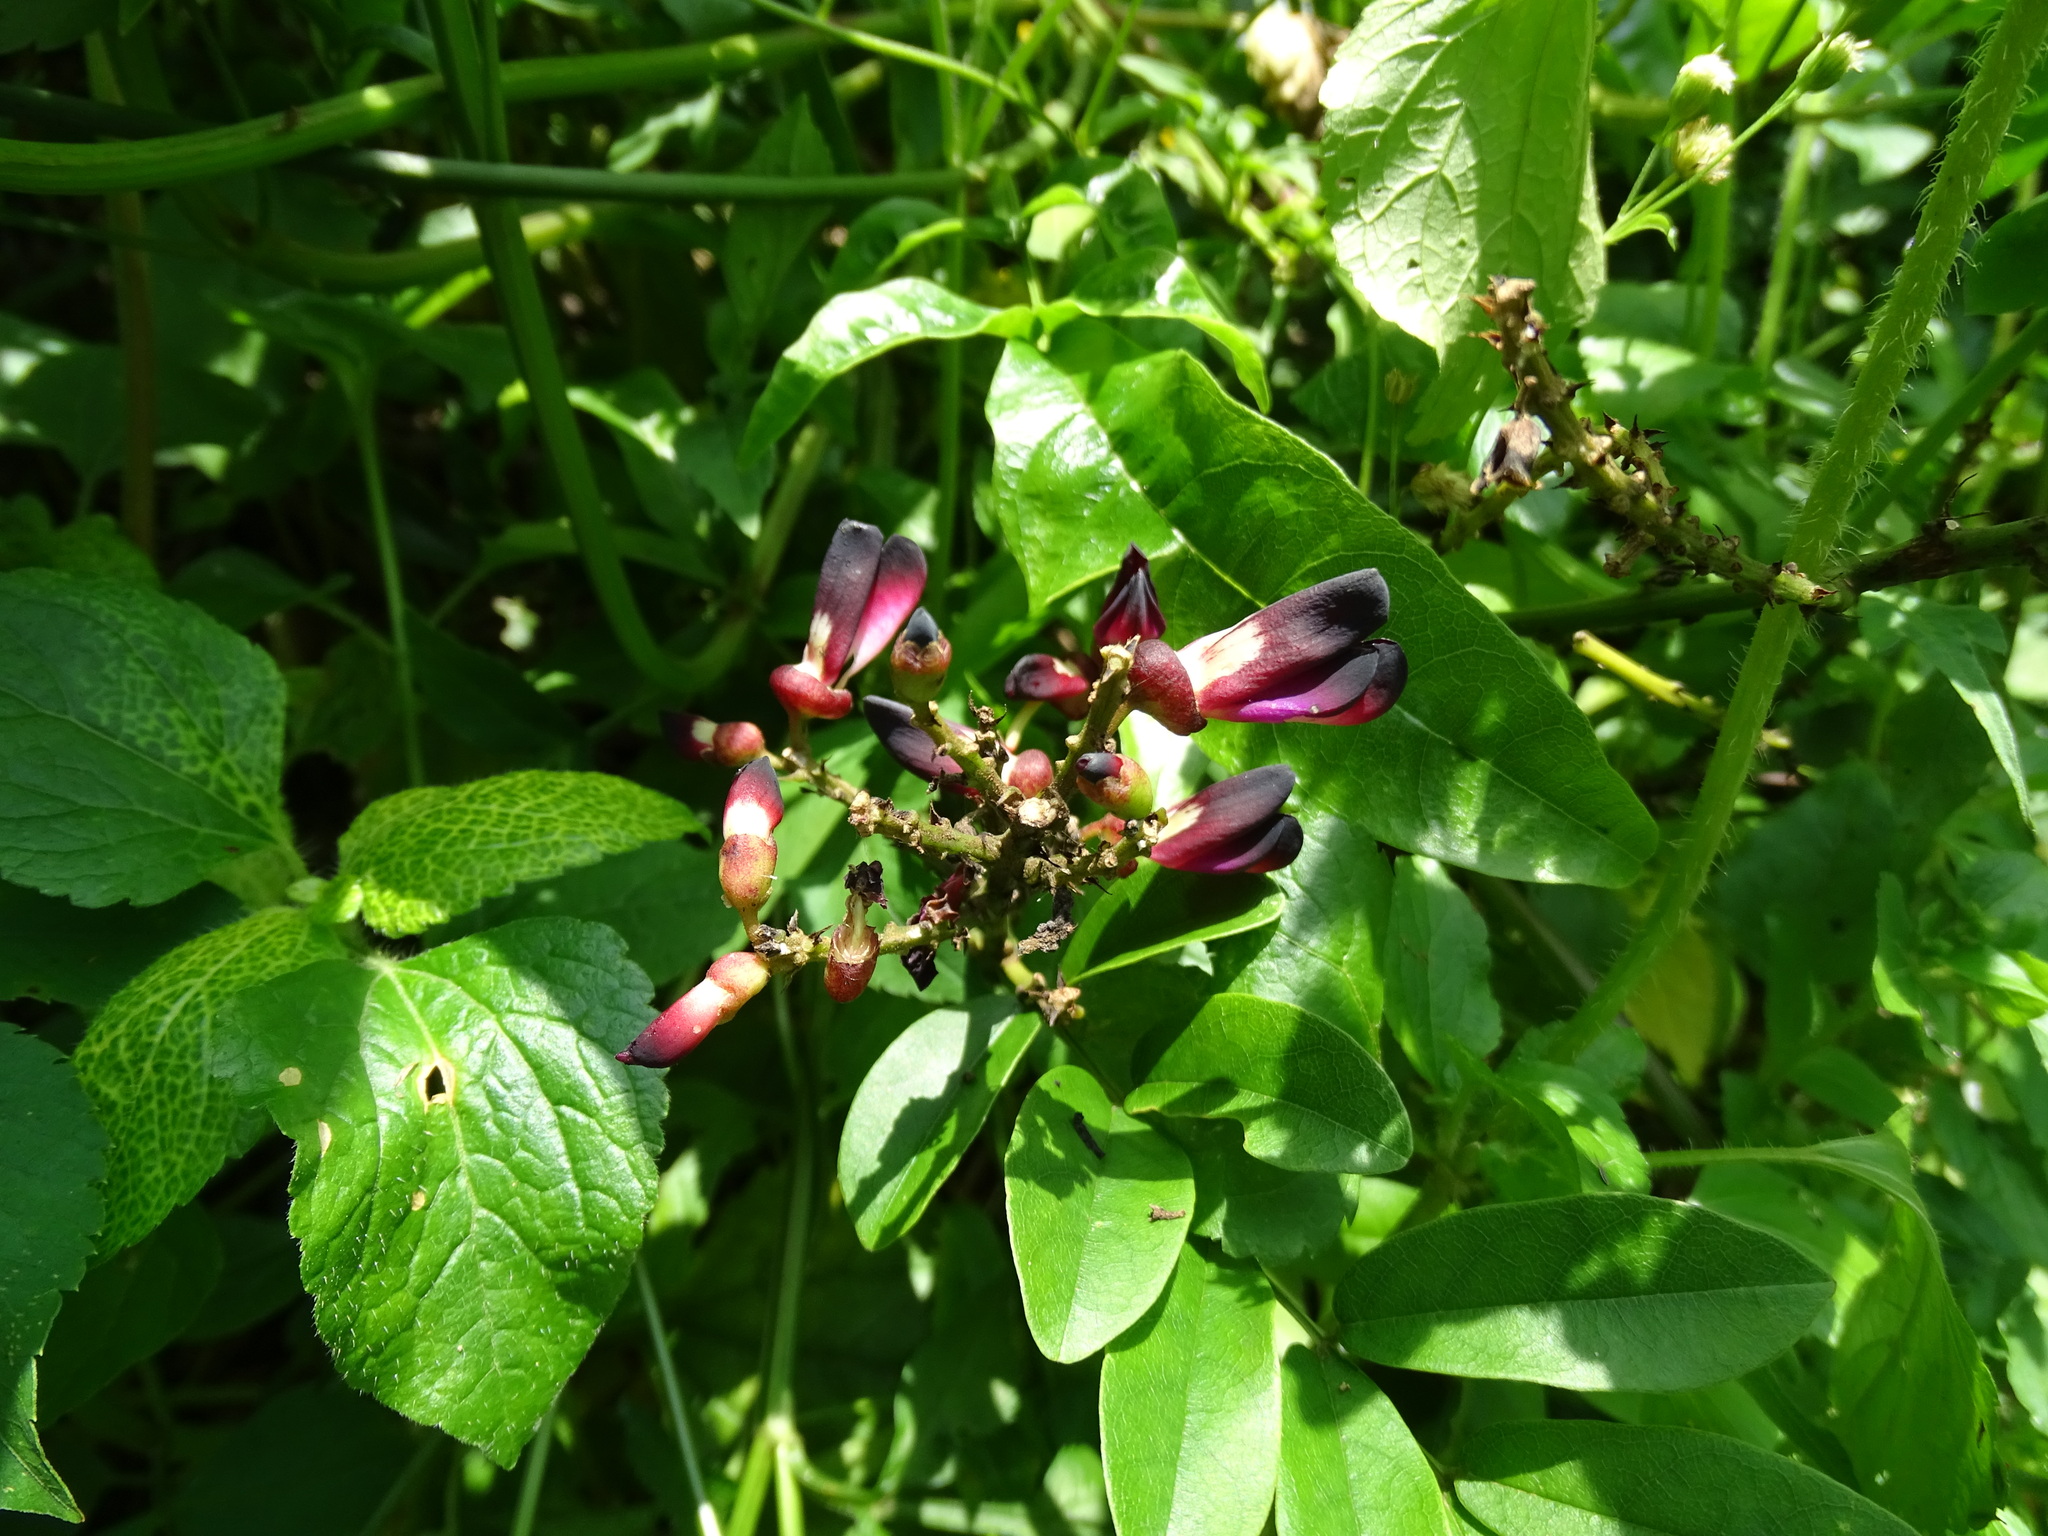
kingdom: Plantae
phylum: Tracheophyta
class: Magnoliopsida
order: Fabales
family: Fabaceae
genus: Wisteriopsis
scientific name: Wisteriopsis reticulata
